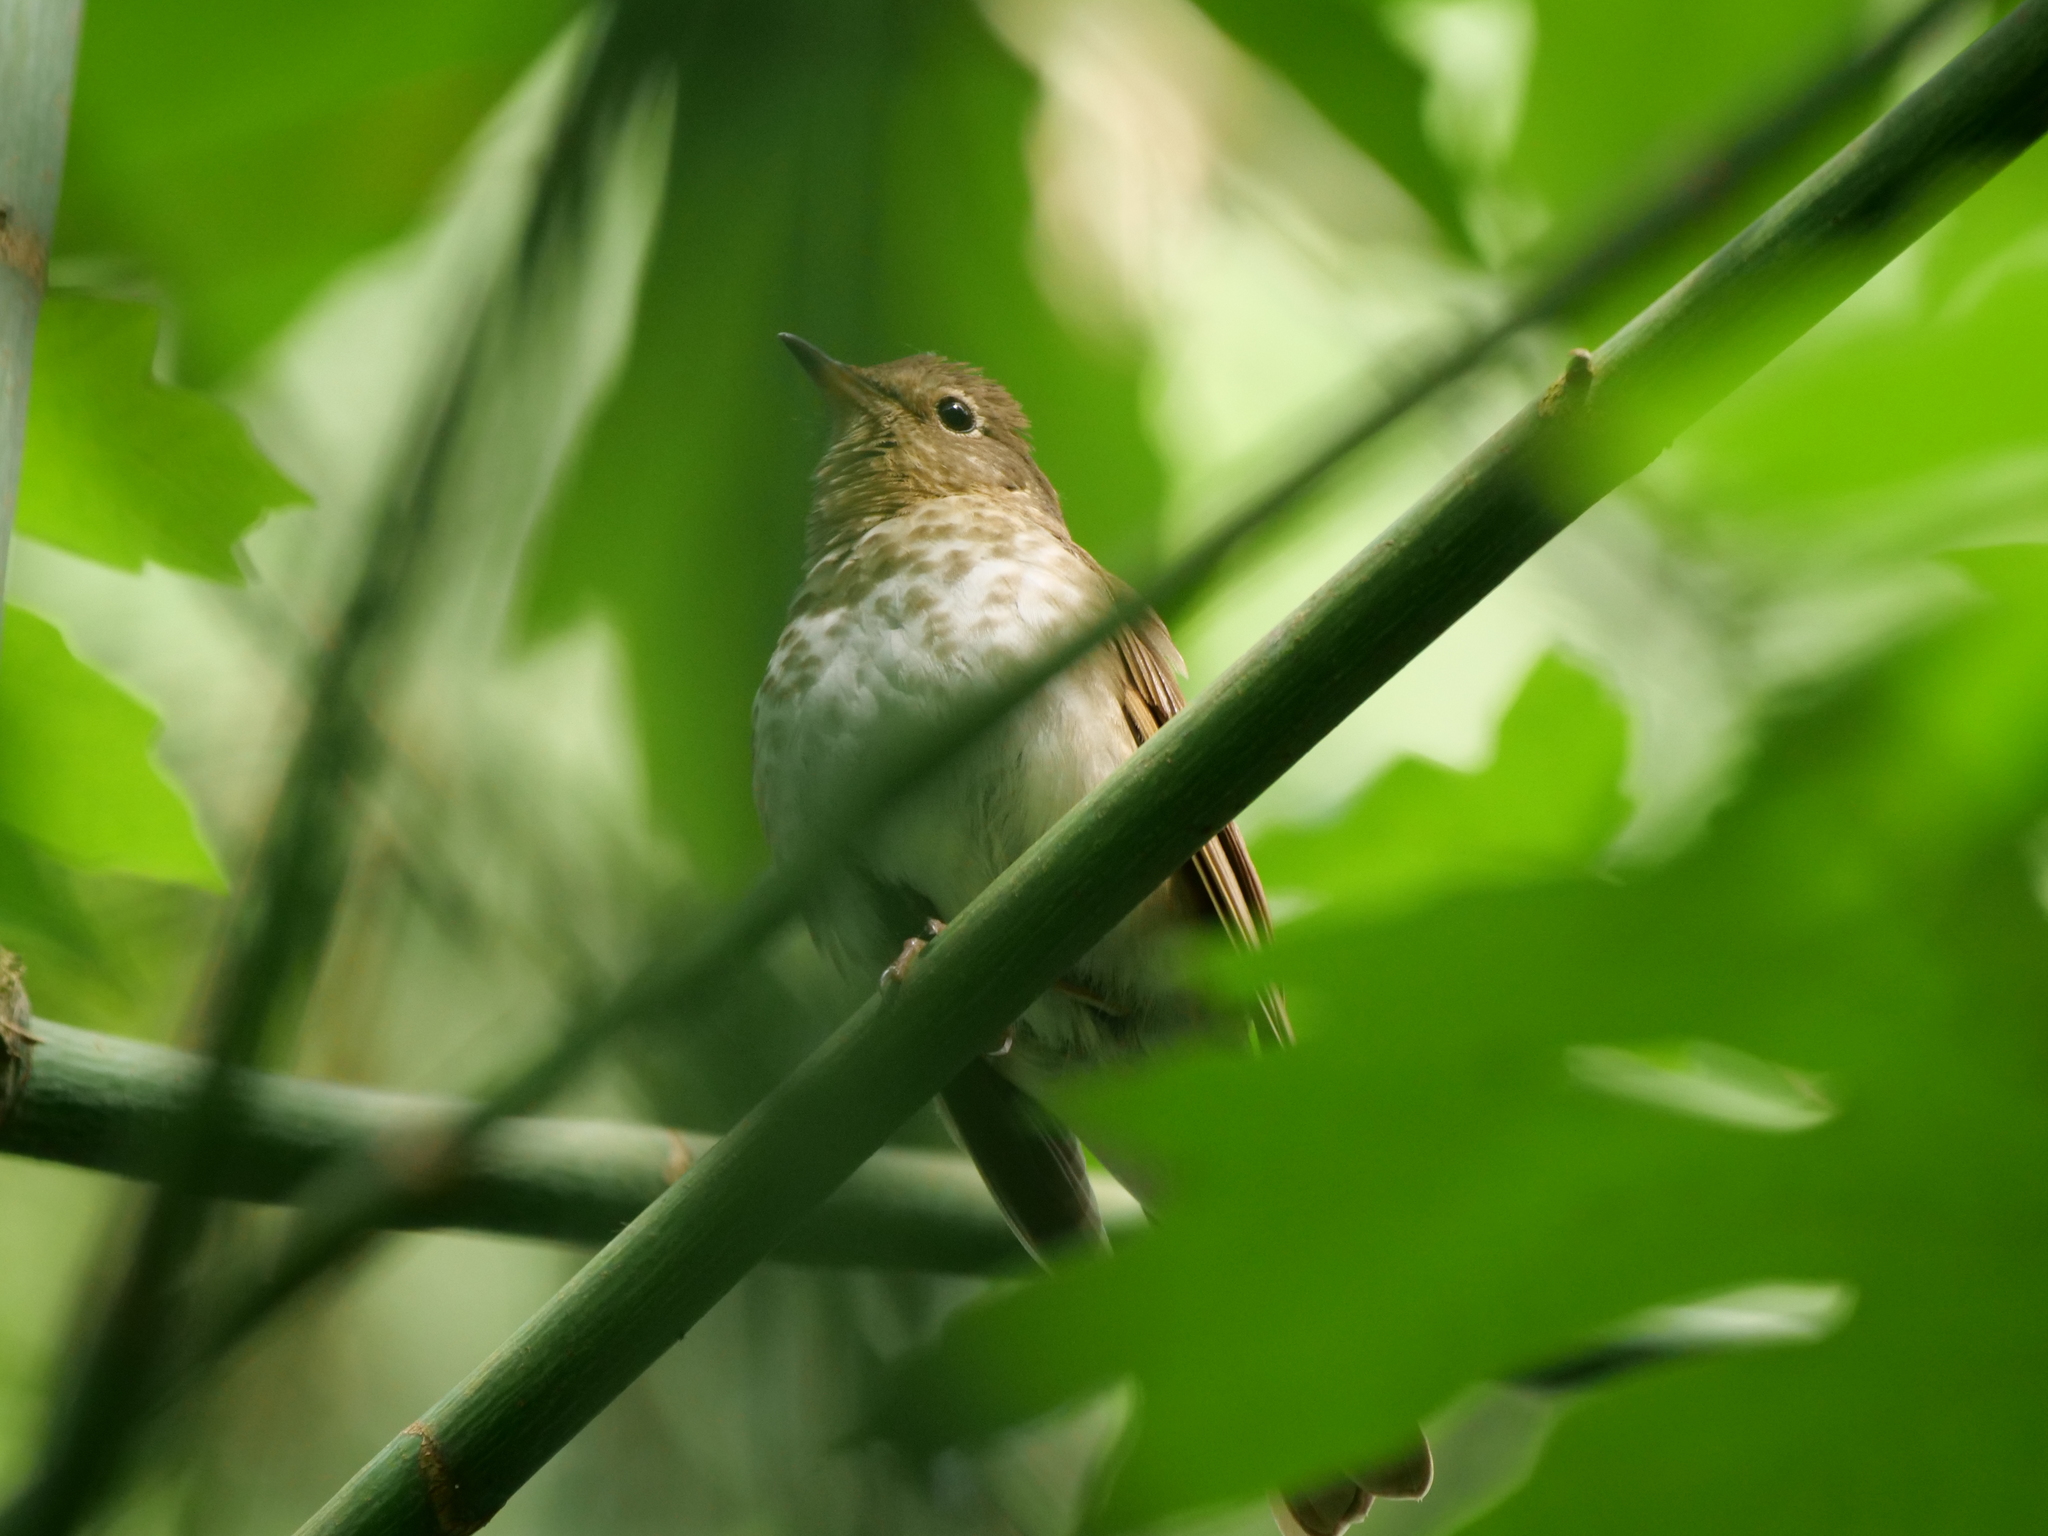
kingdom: Animalia
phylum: Chordata
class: Aves
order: Passeriformes
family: Turdidae
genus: Catharus
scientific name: Catharus ustulatus
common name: Swainson's thrush
